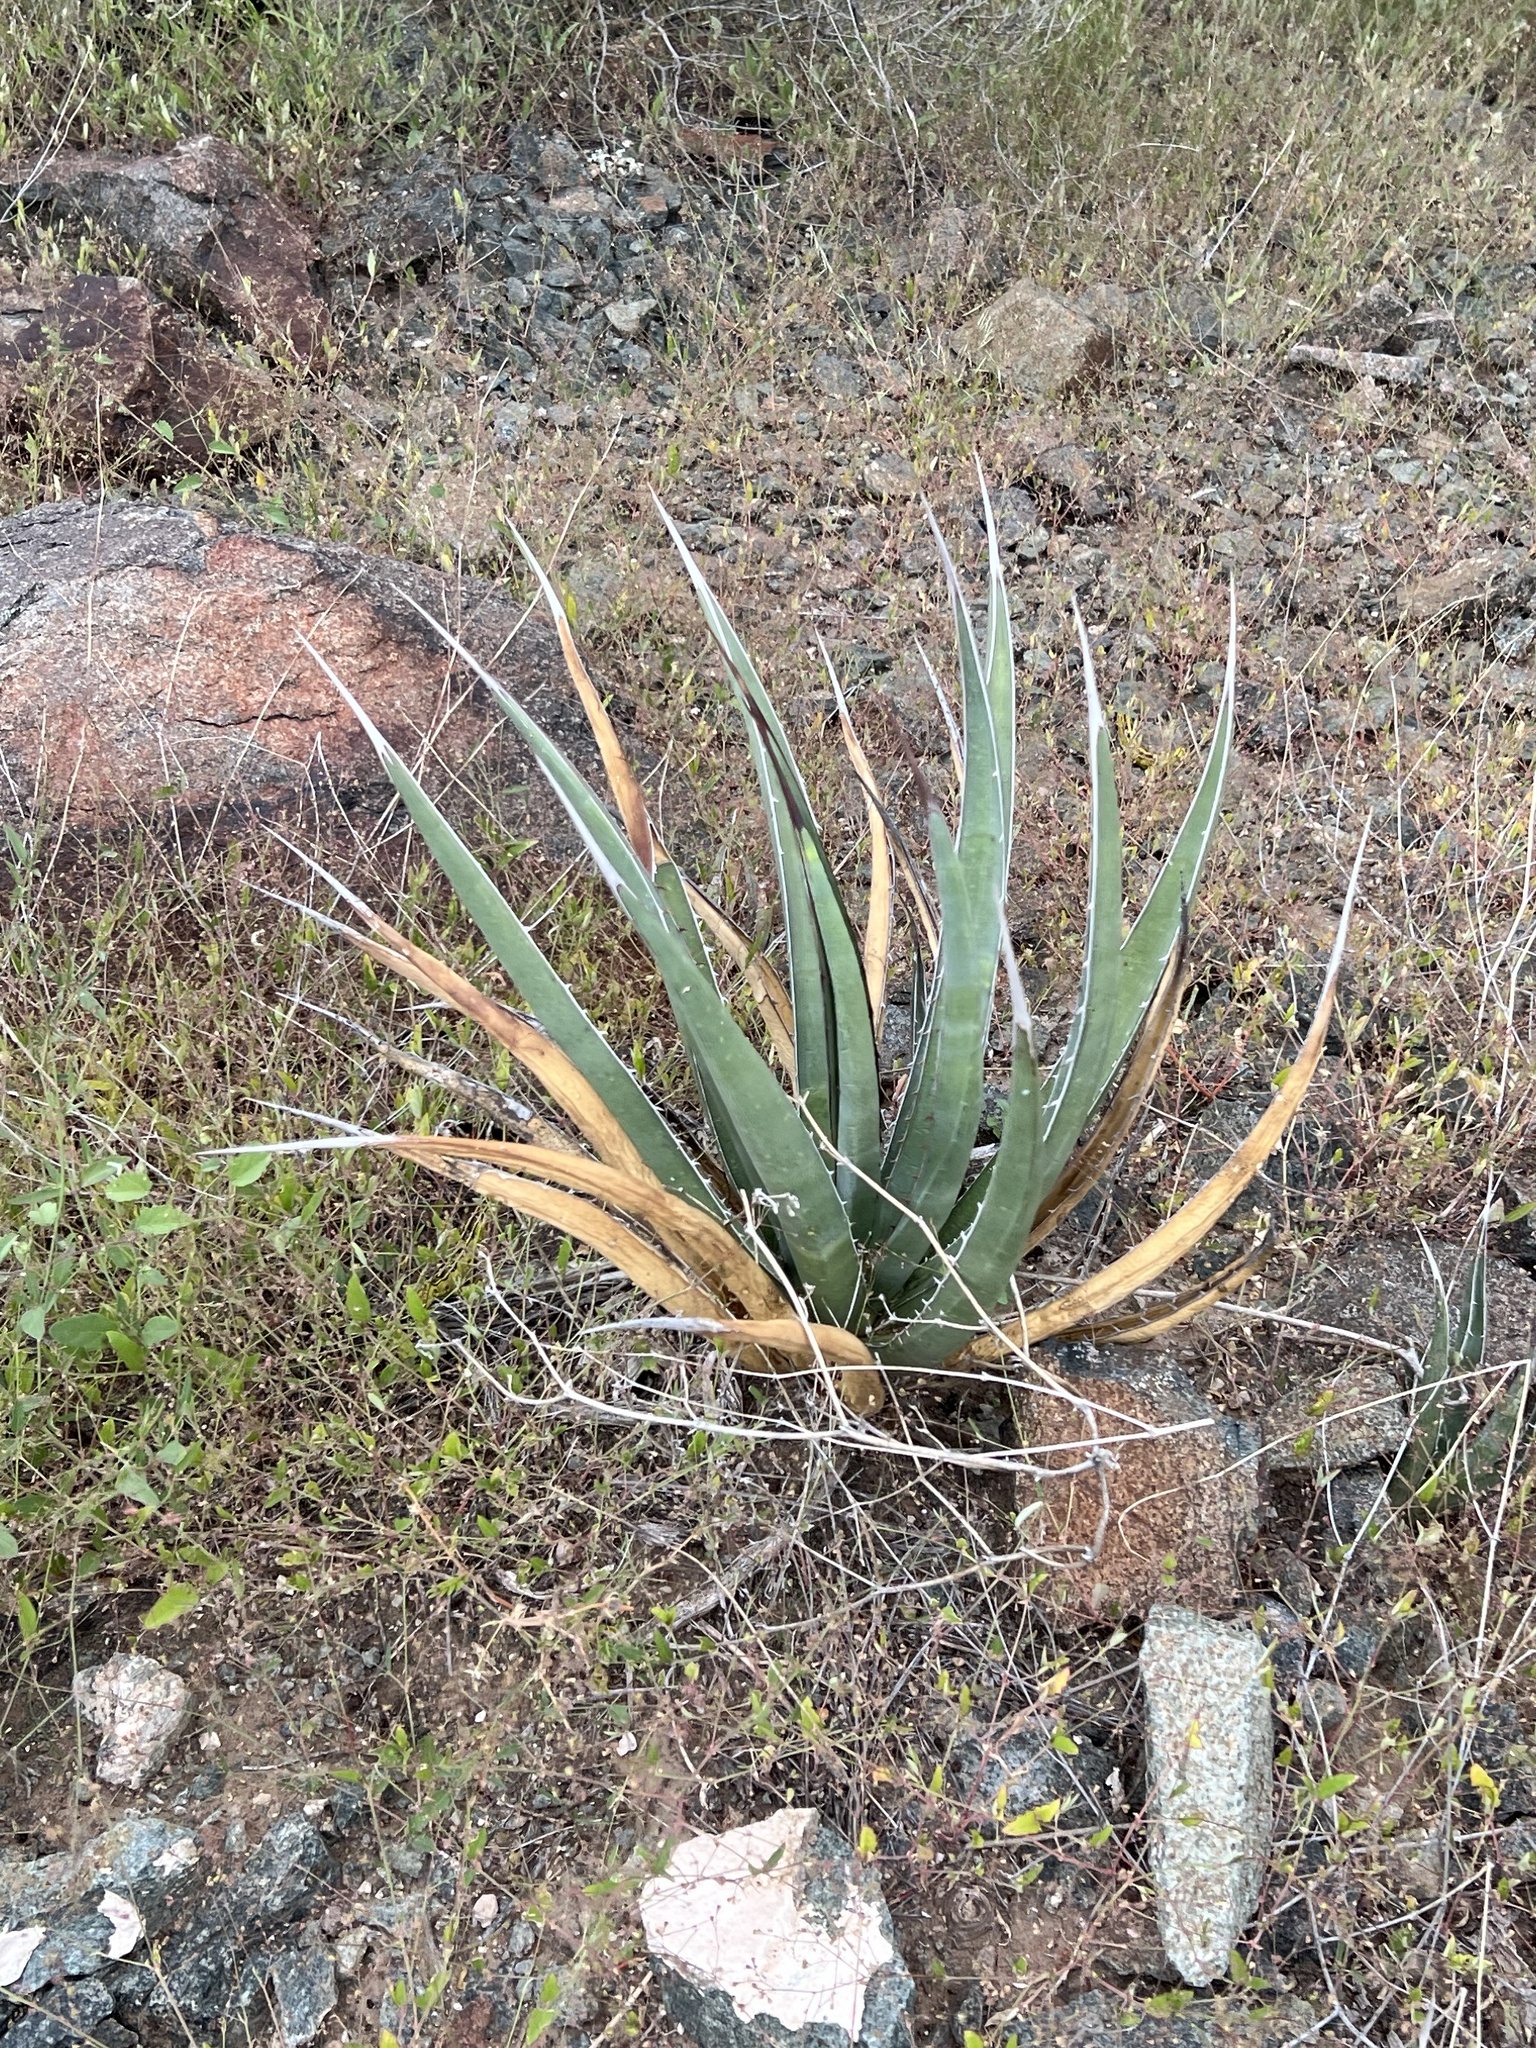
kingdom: Plantae
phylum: Tracheophyta
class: Liliopsida
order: Asparagales
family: Asparagaceae
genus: Agave
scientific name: Agave lechuguilla
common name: Lecheguilla agave
